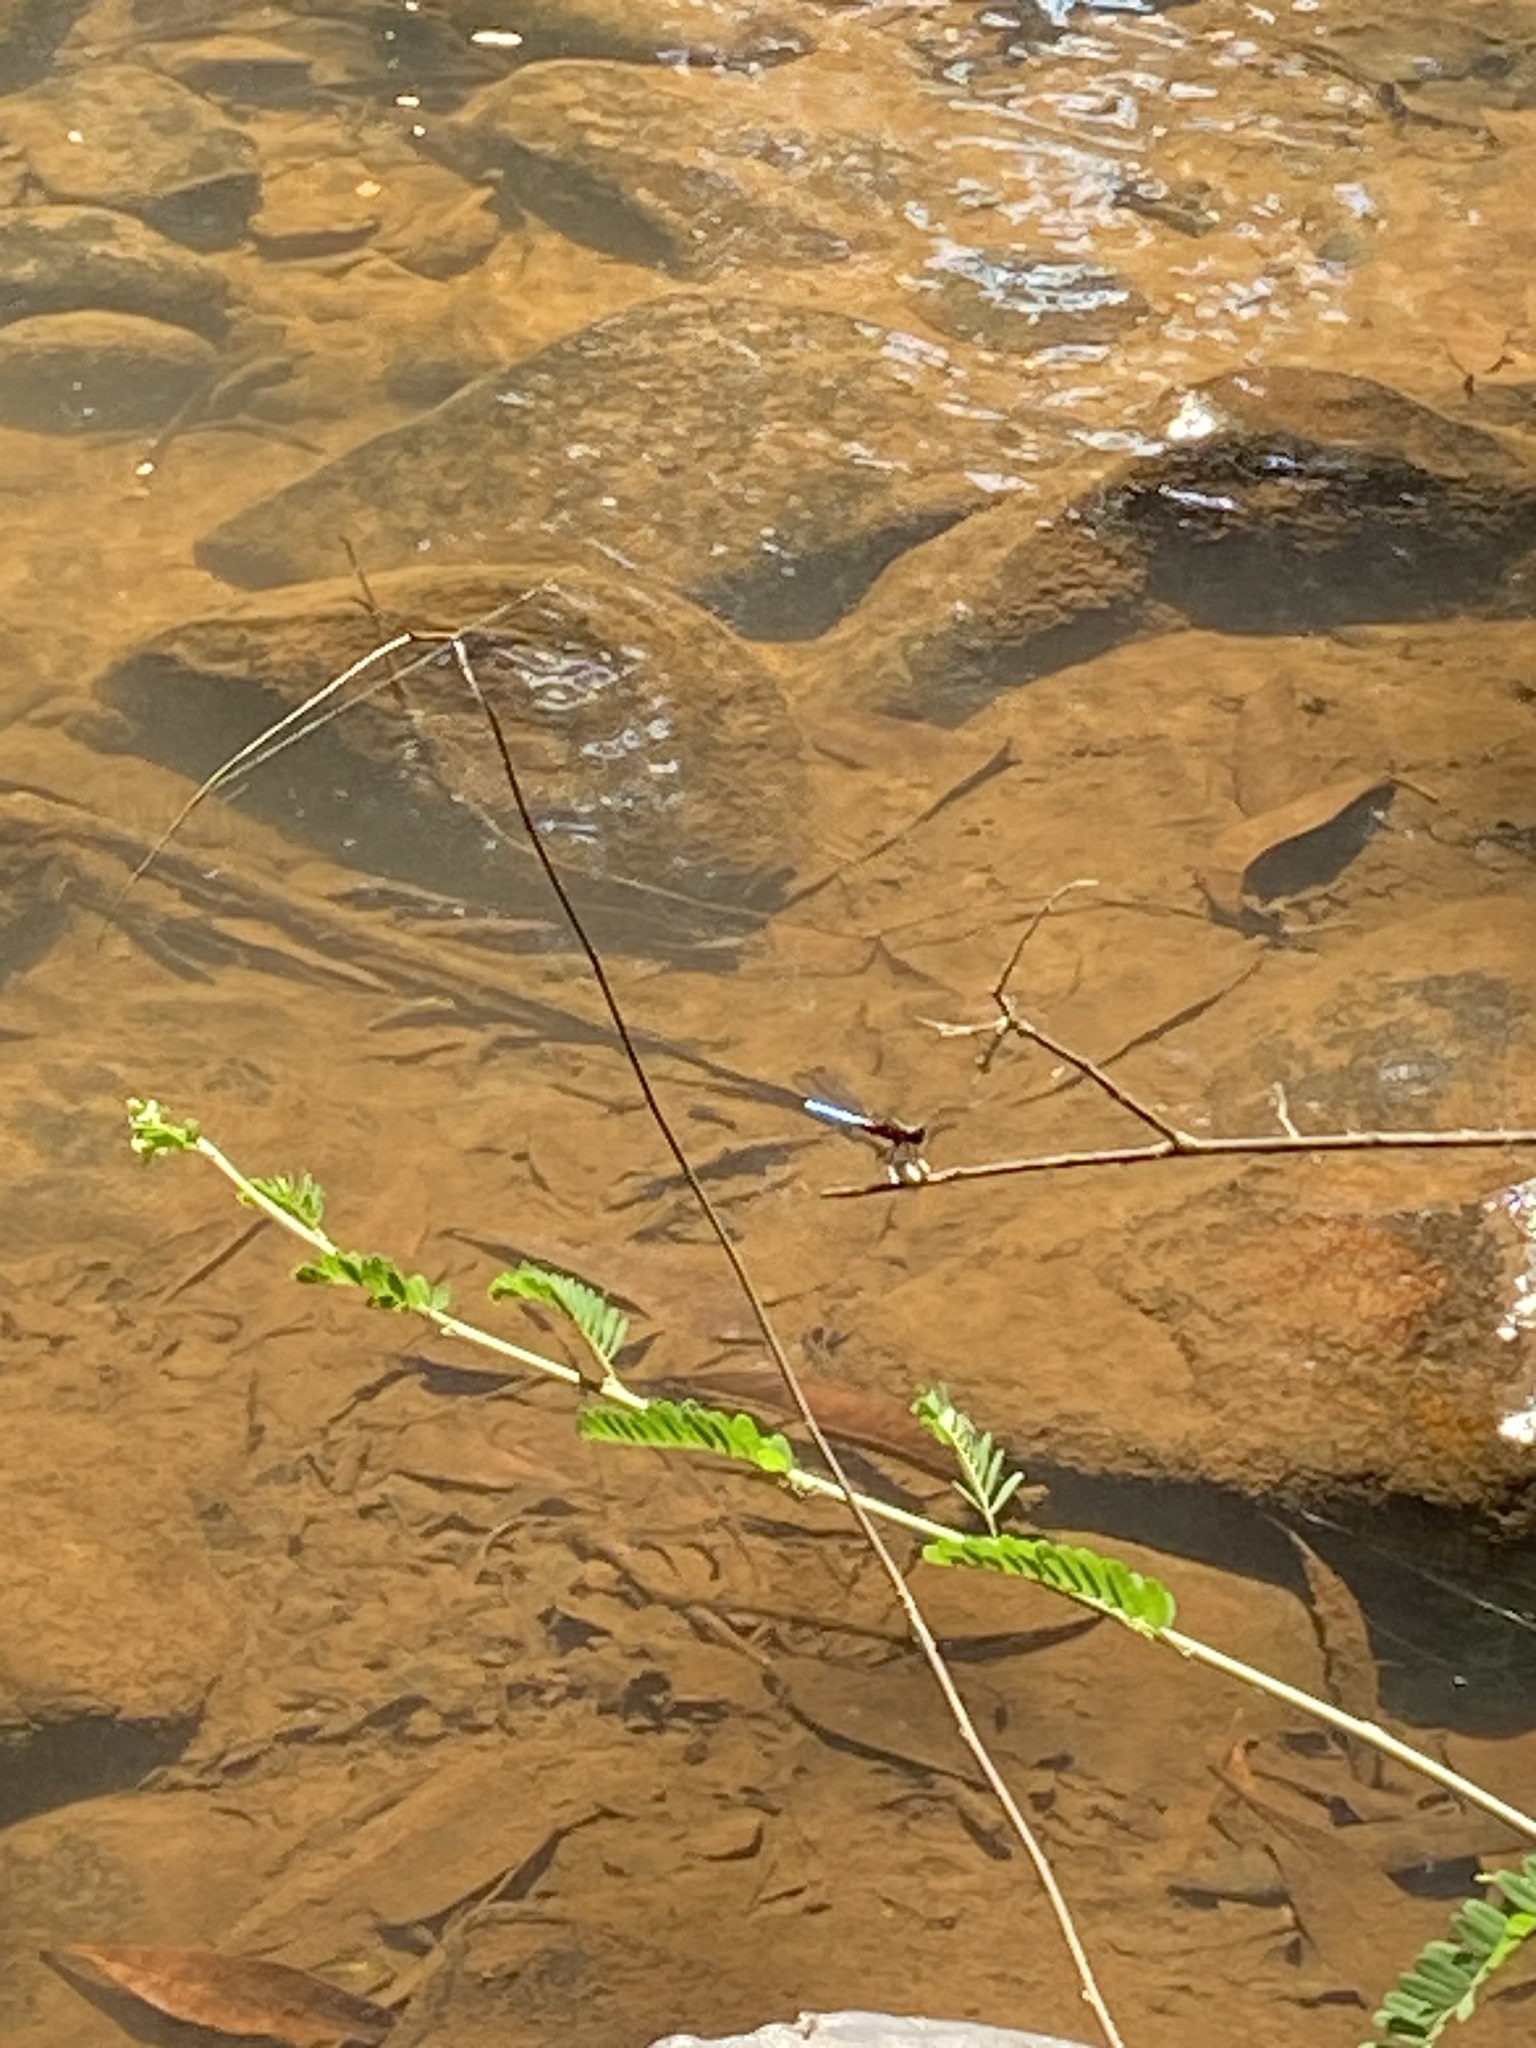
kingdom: Animalia
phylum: Arthropoda
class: Insecta
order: Odonata
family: Chlorocyphidae
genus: Platycypha
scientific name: Platycypha caligata
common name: Dancing jewel
